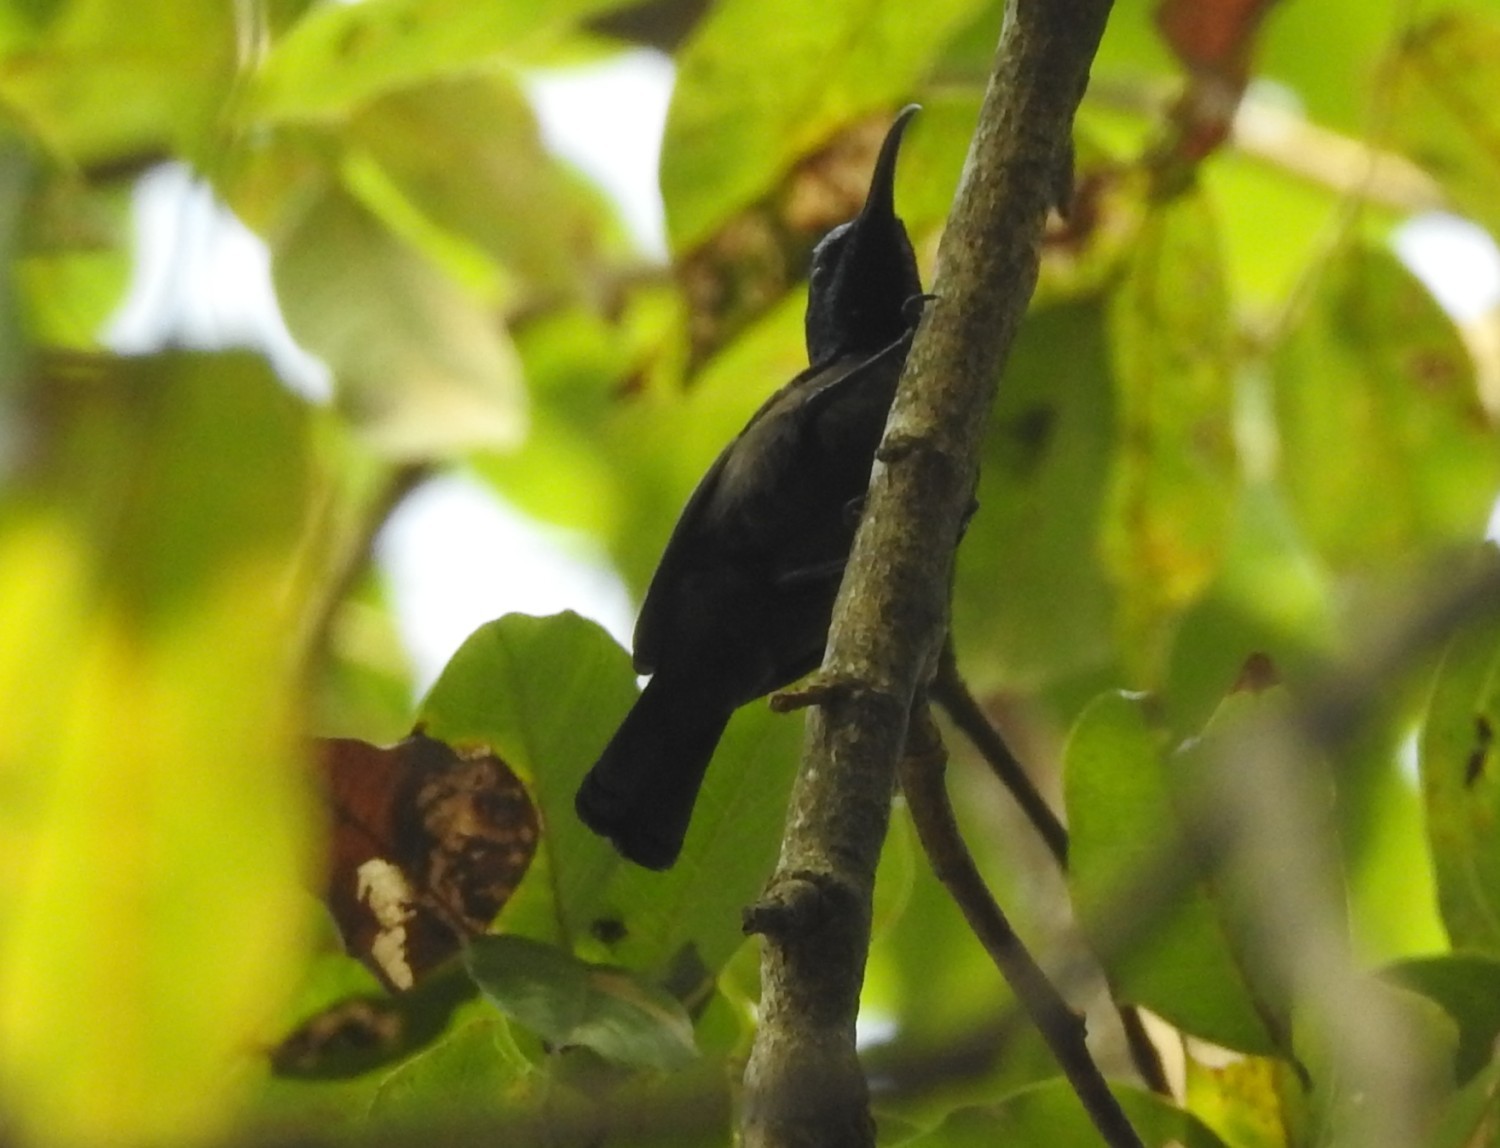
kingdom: Animalia
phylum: Chordata
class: Aves
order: Passeriformes
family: Nectariniidae
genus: Cinnyris
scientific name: Cinnyris lotenius
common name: Loten's sunbird
